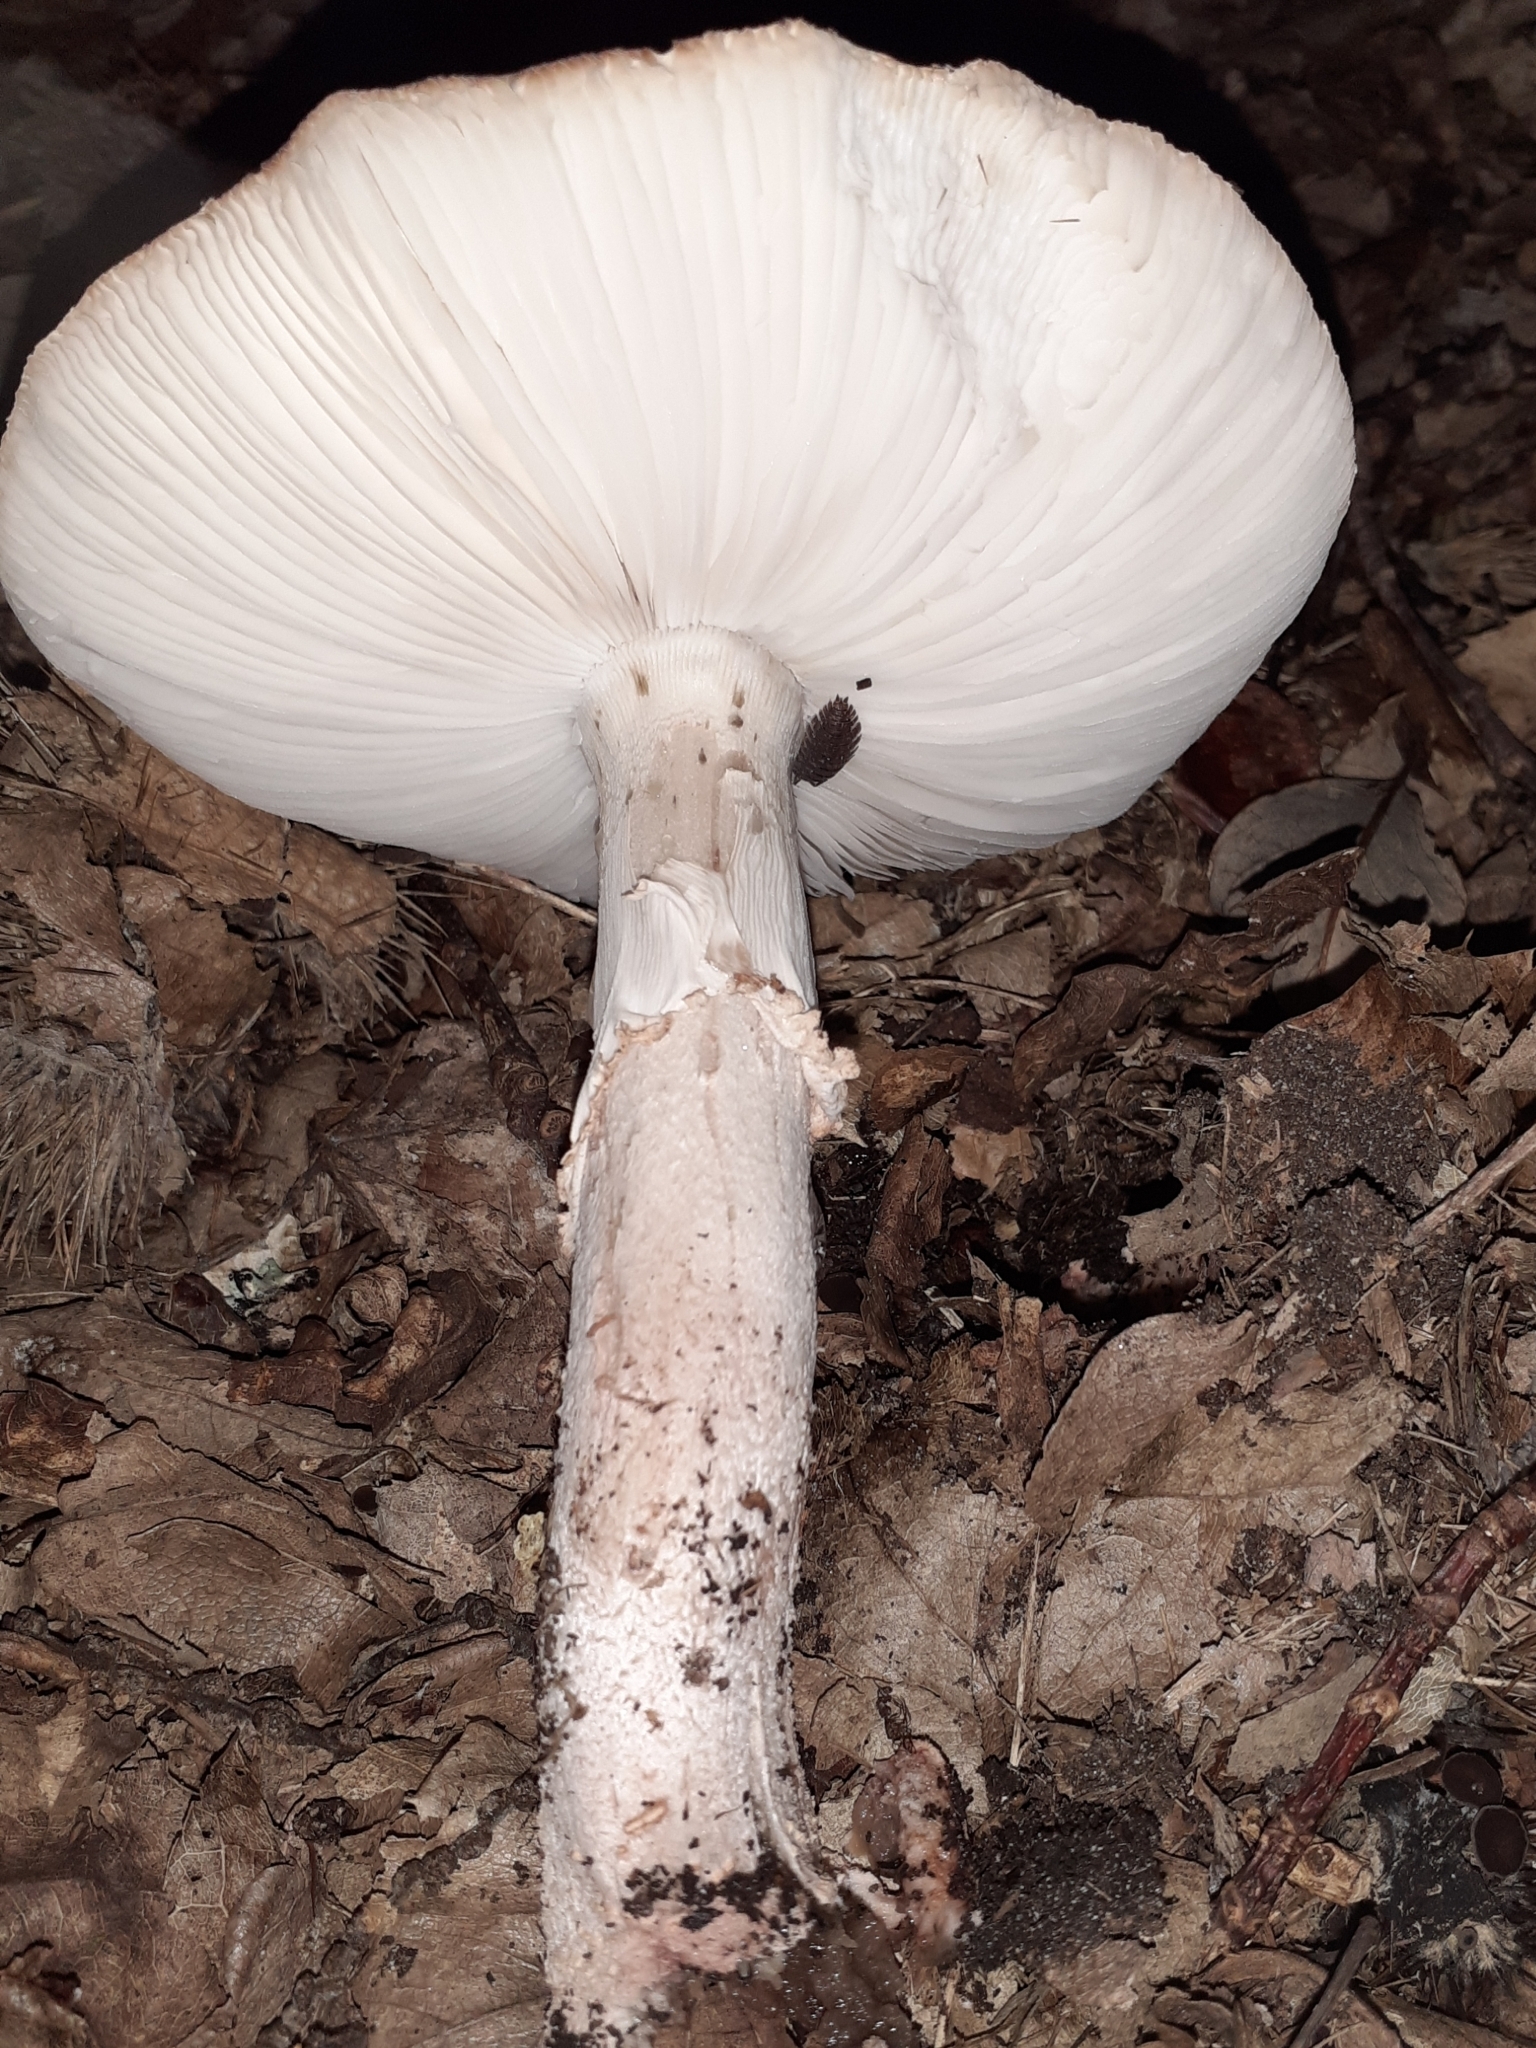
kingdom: Fungi
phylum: Basidiomycota
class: Agaricomycetes
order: Agaricales
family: Amanitaceae
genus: Amanita
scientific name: Amanita rubescens
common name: Blusher
